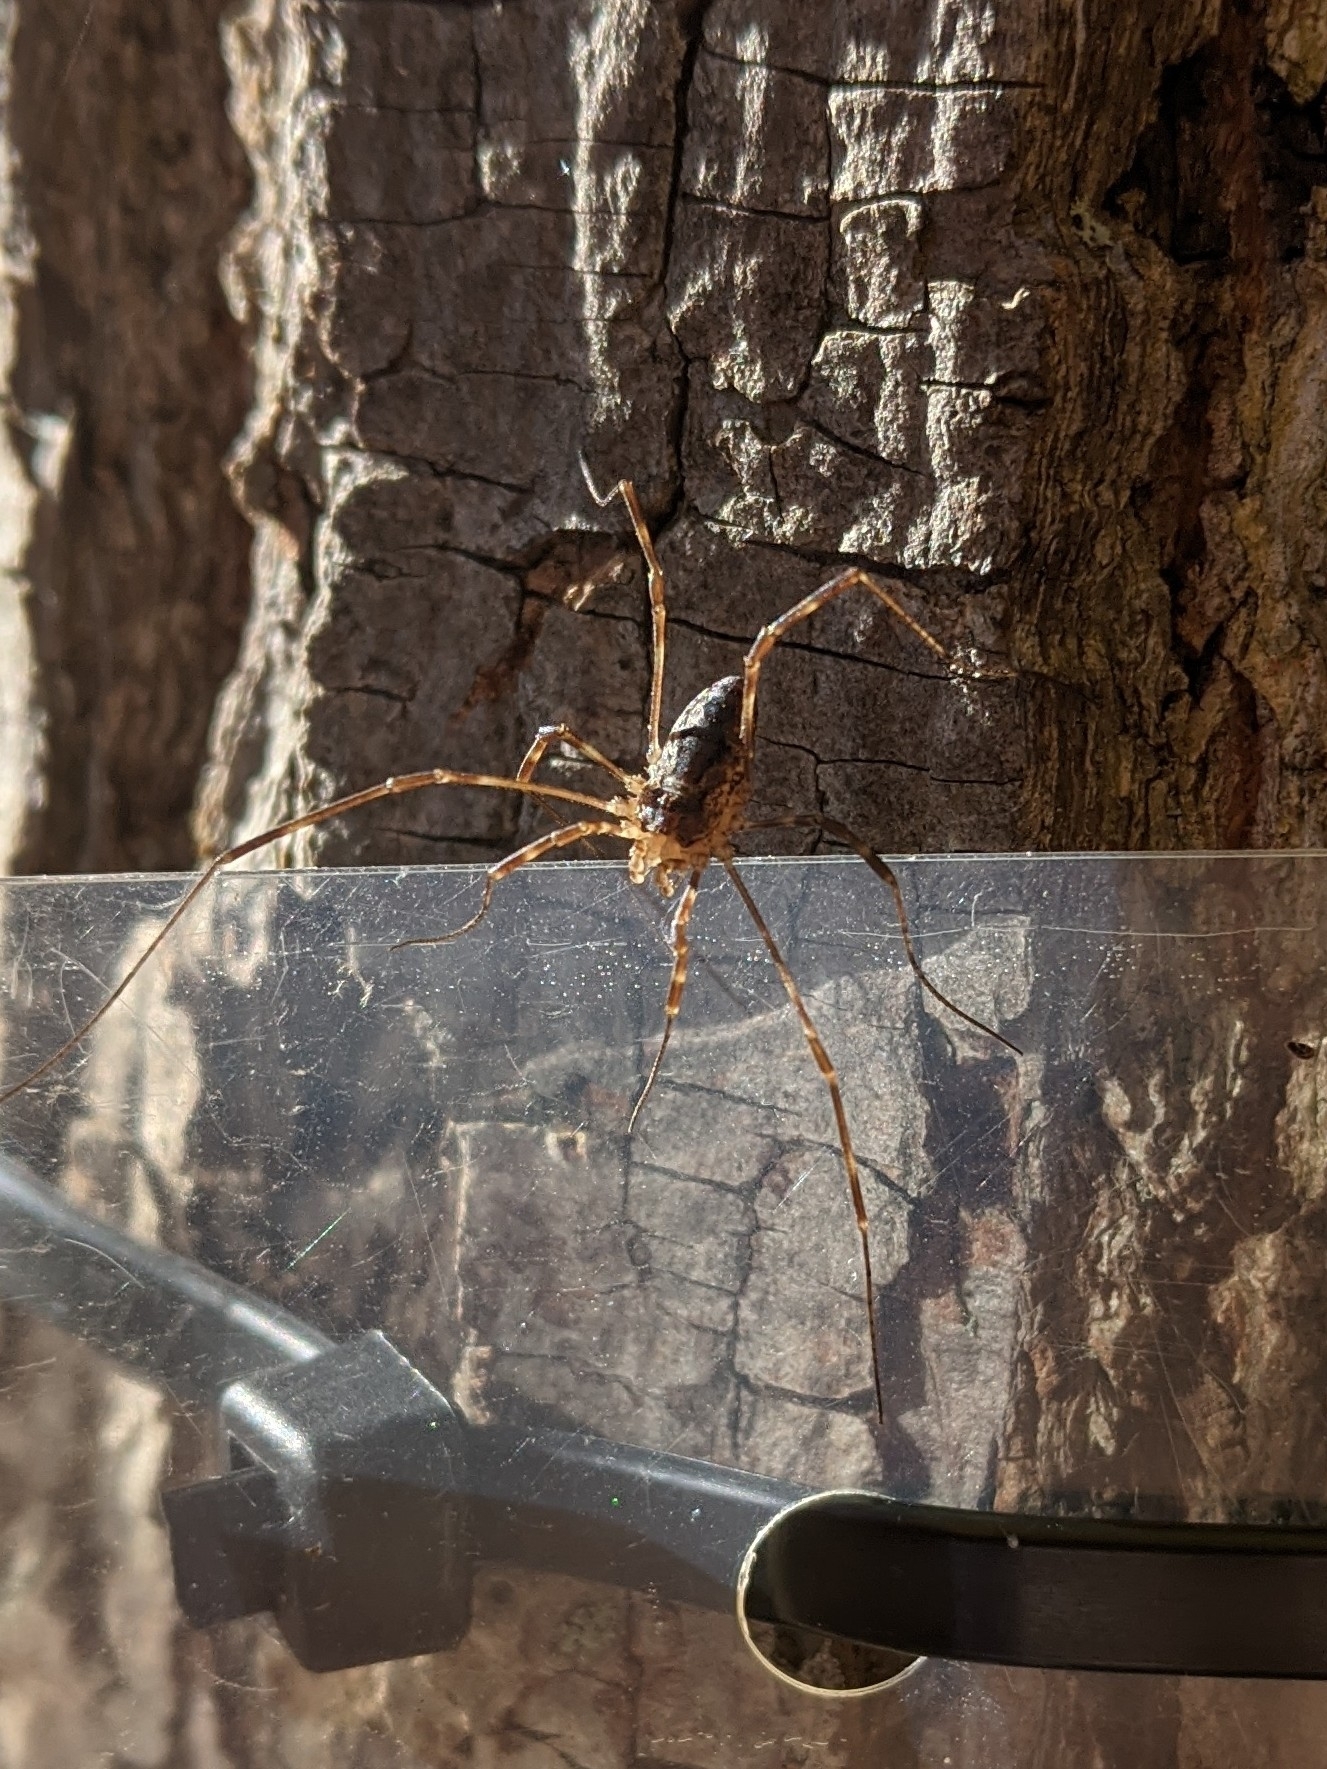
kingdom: Animalia
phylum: Arthropoda
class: Arachnida
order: Opiliones
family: Phalangiidae
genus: Odiellus
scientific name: Odiellus pictus
